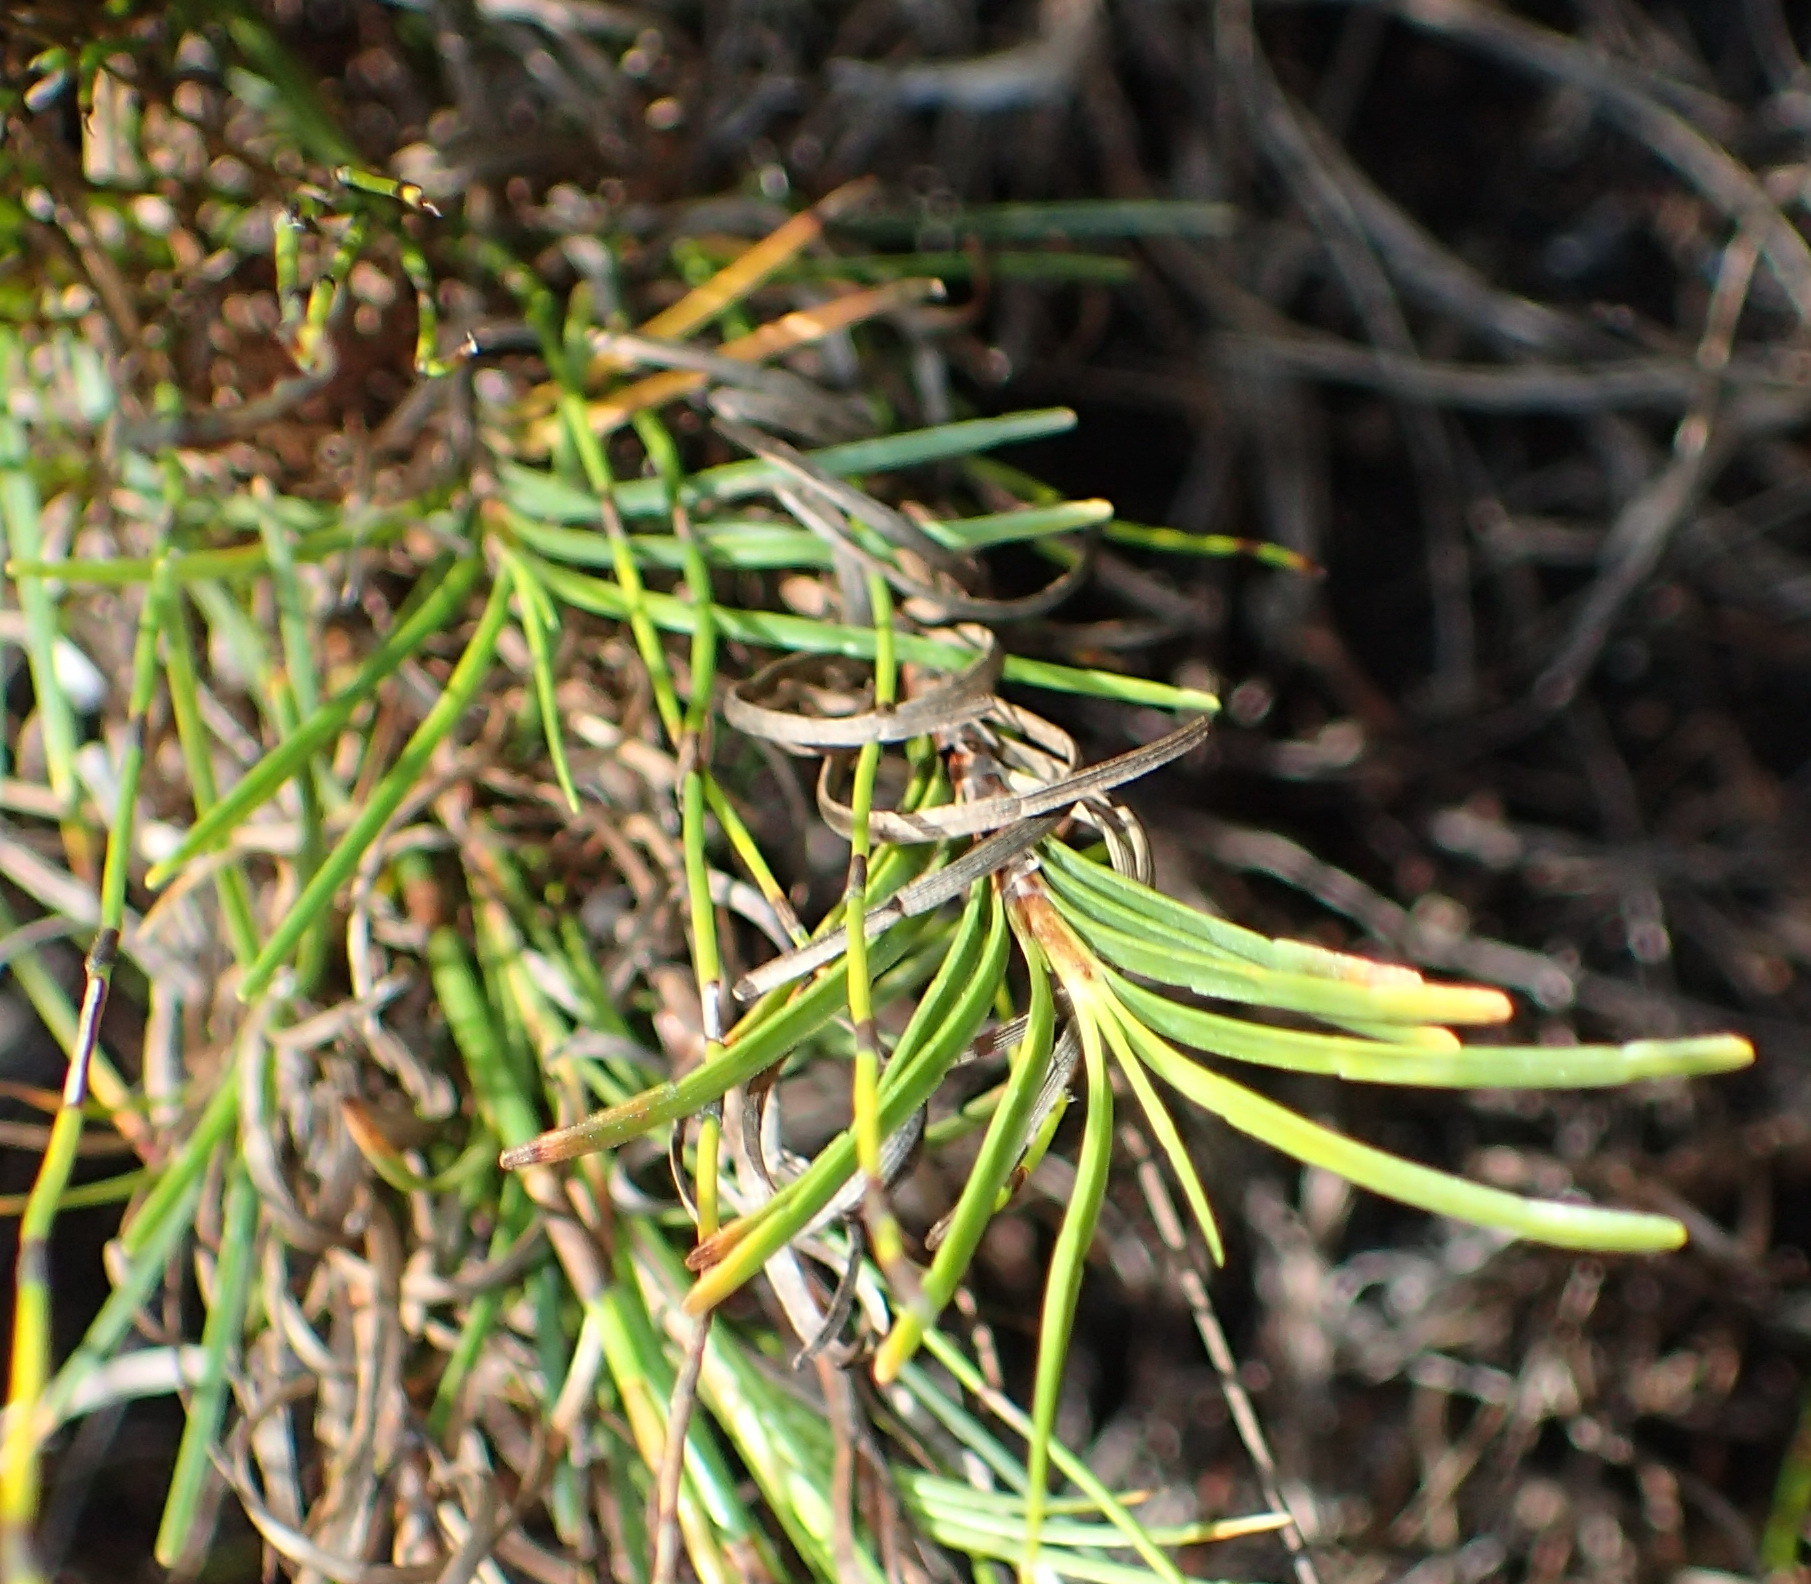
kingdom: Plantae
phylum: Tracheophyta
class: Liliopsida
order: Poales
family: Cyperaceae
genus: Ficinia
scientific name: Ficinia ramosissima
